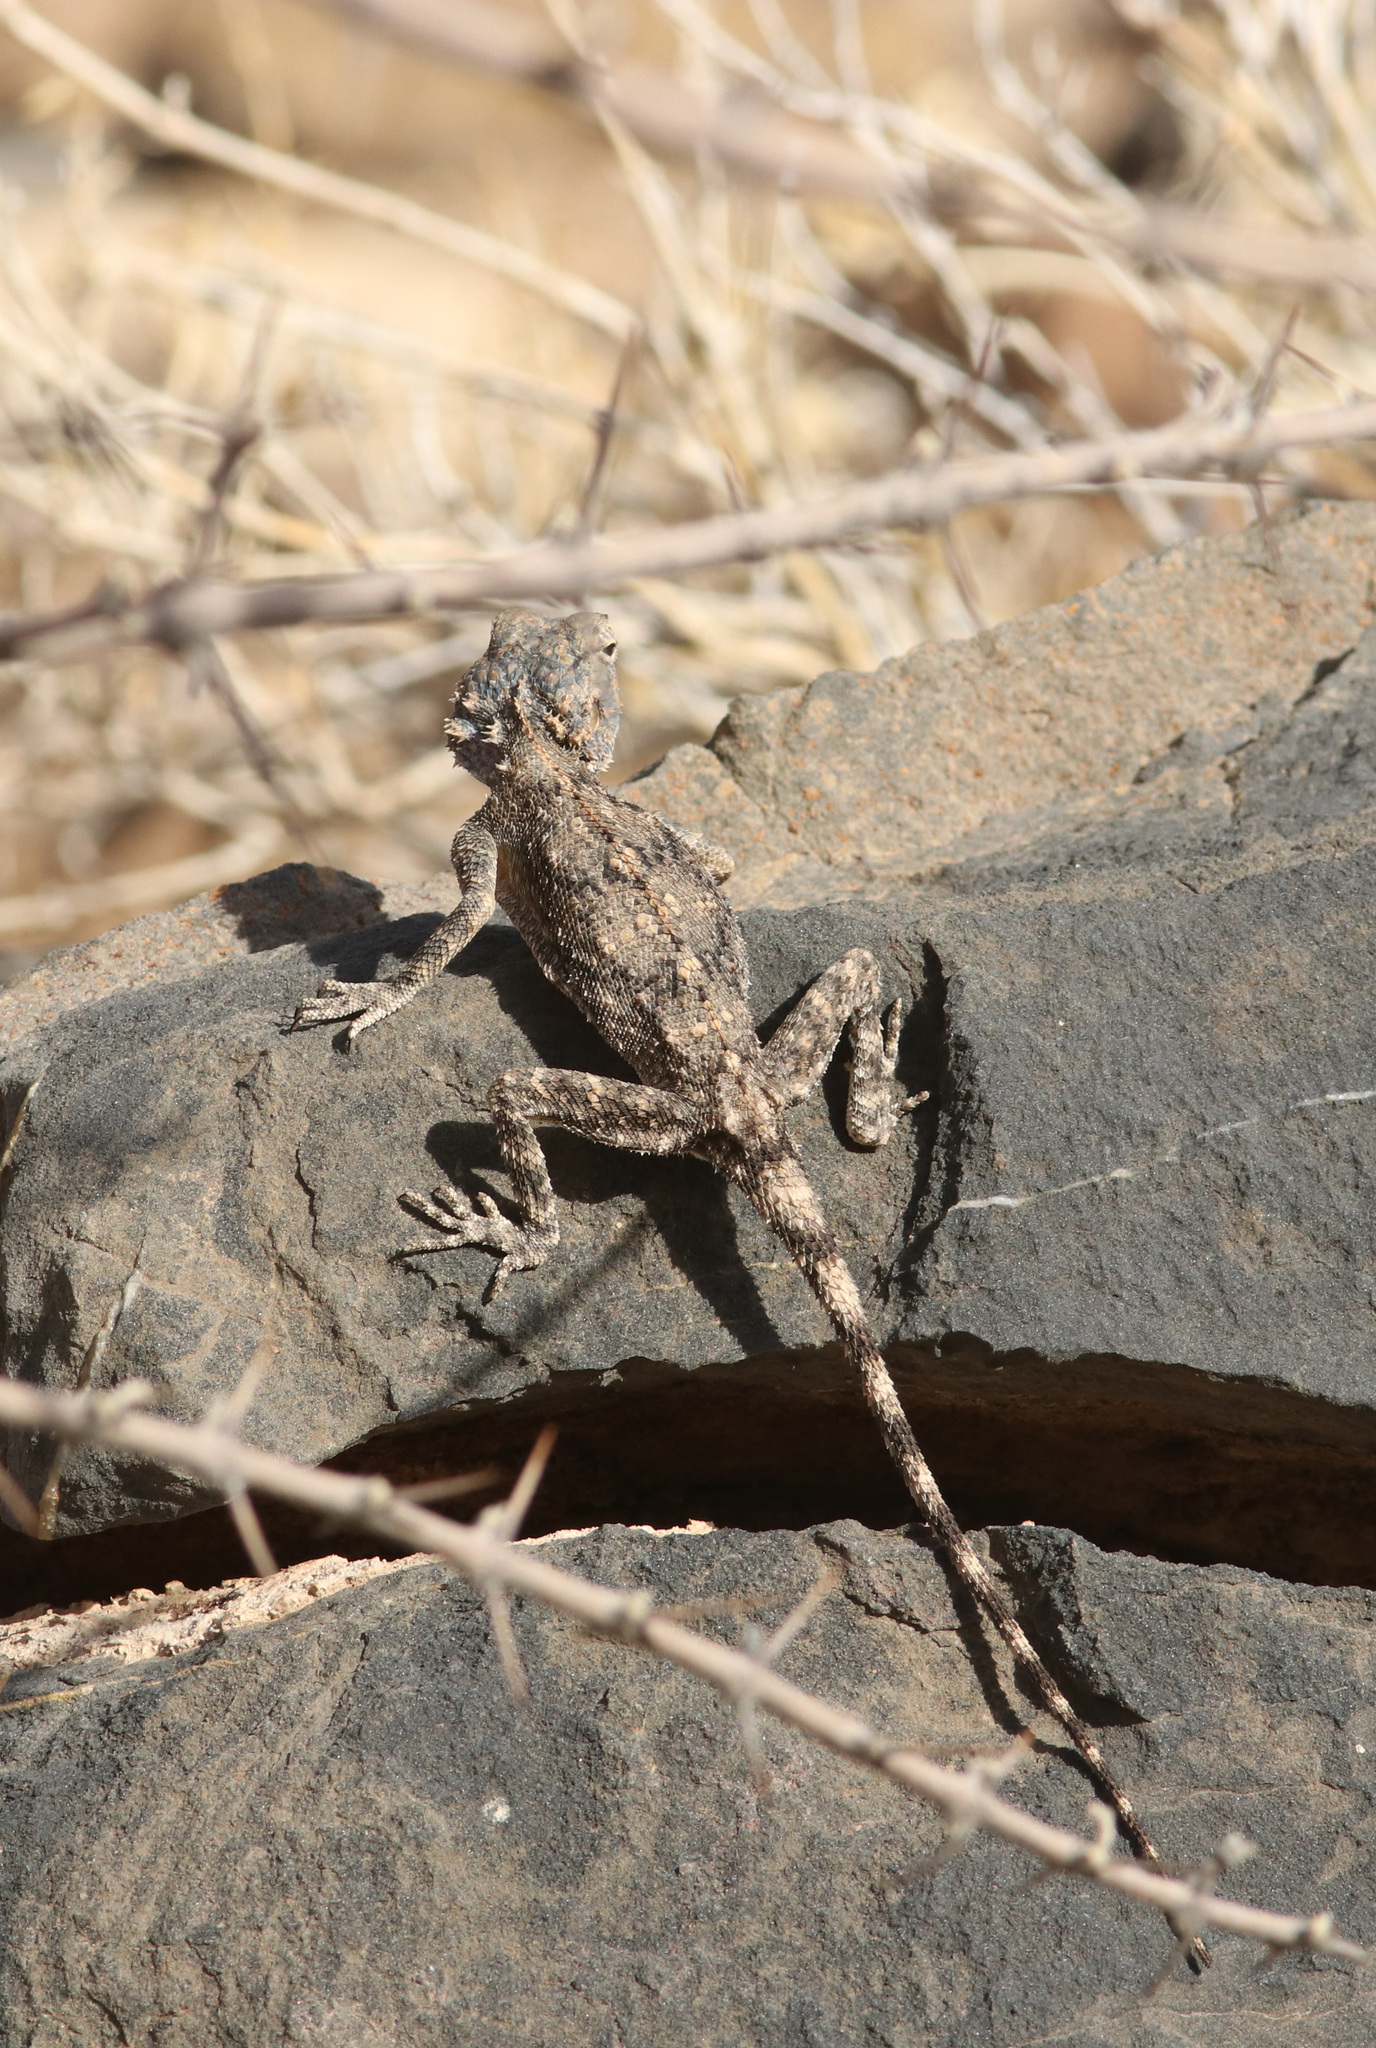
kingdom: Animalia
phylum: Chordata
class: Squamata
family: Agamidae
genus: Agama
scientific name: Agama anchietae
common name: Anchieta's agama
